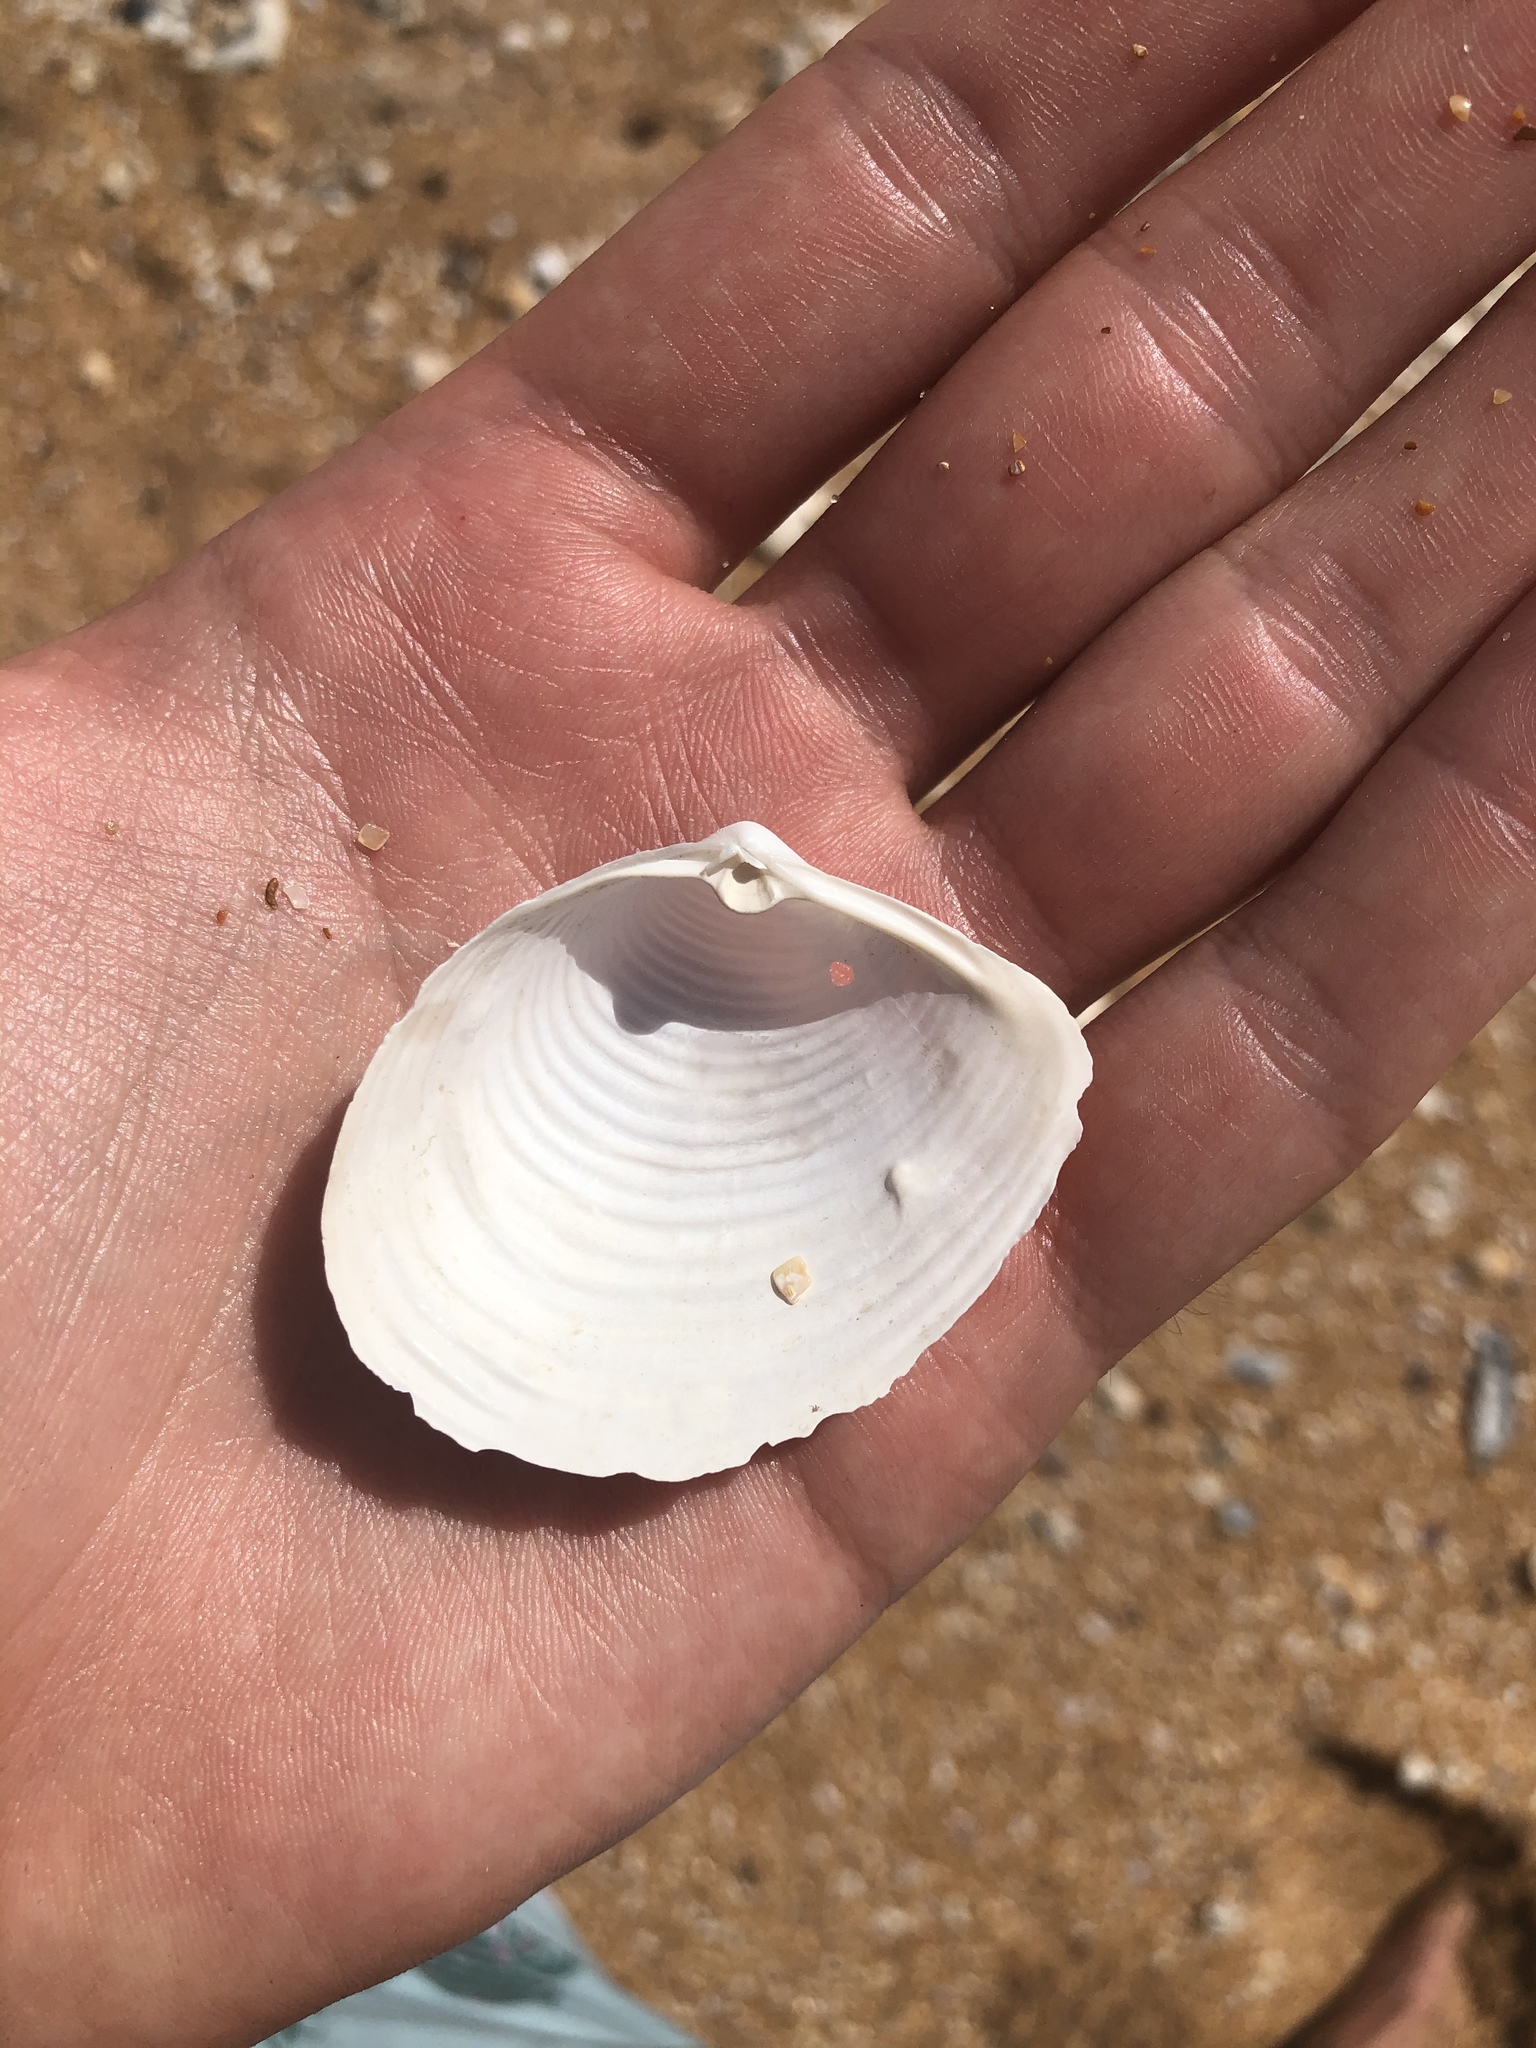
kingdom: Animalia
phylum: Mollusca
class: Bivalvia
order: Venerida
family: Anatinellidae
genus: Raeta
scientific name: Raeta plicatella
